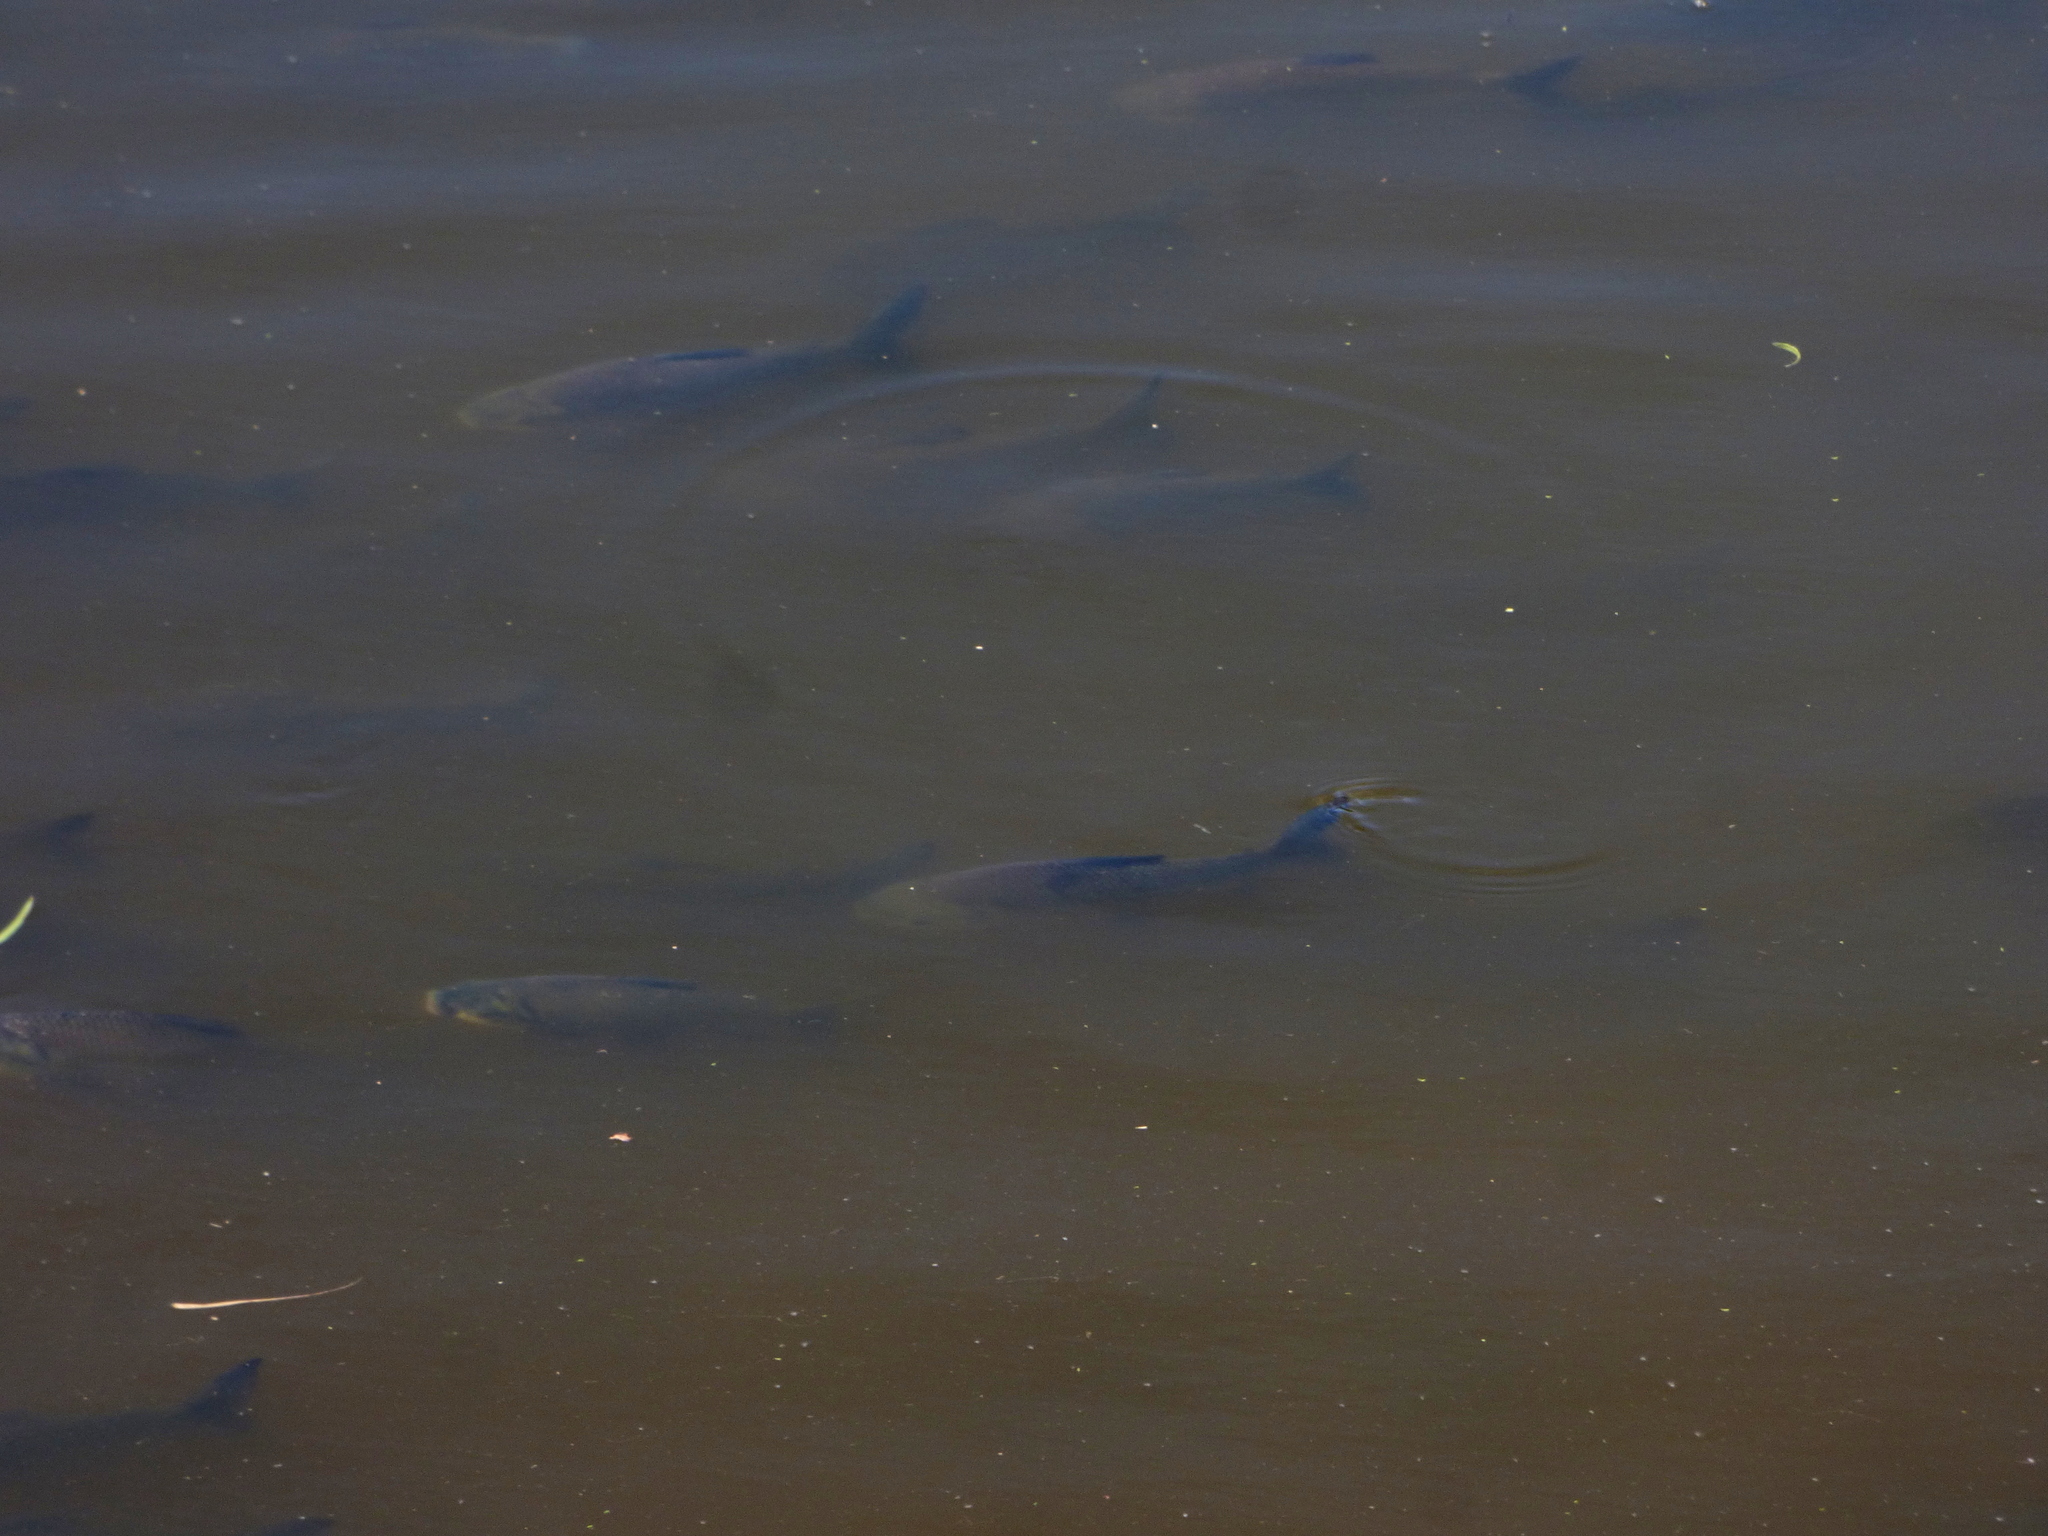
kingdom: Animalia
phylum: Chordata
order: Characiformes
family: Prochilodontidae
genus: Prochilodus
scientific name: Prochilodus lineatus
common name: Curimbata
